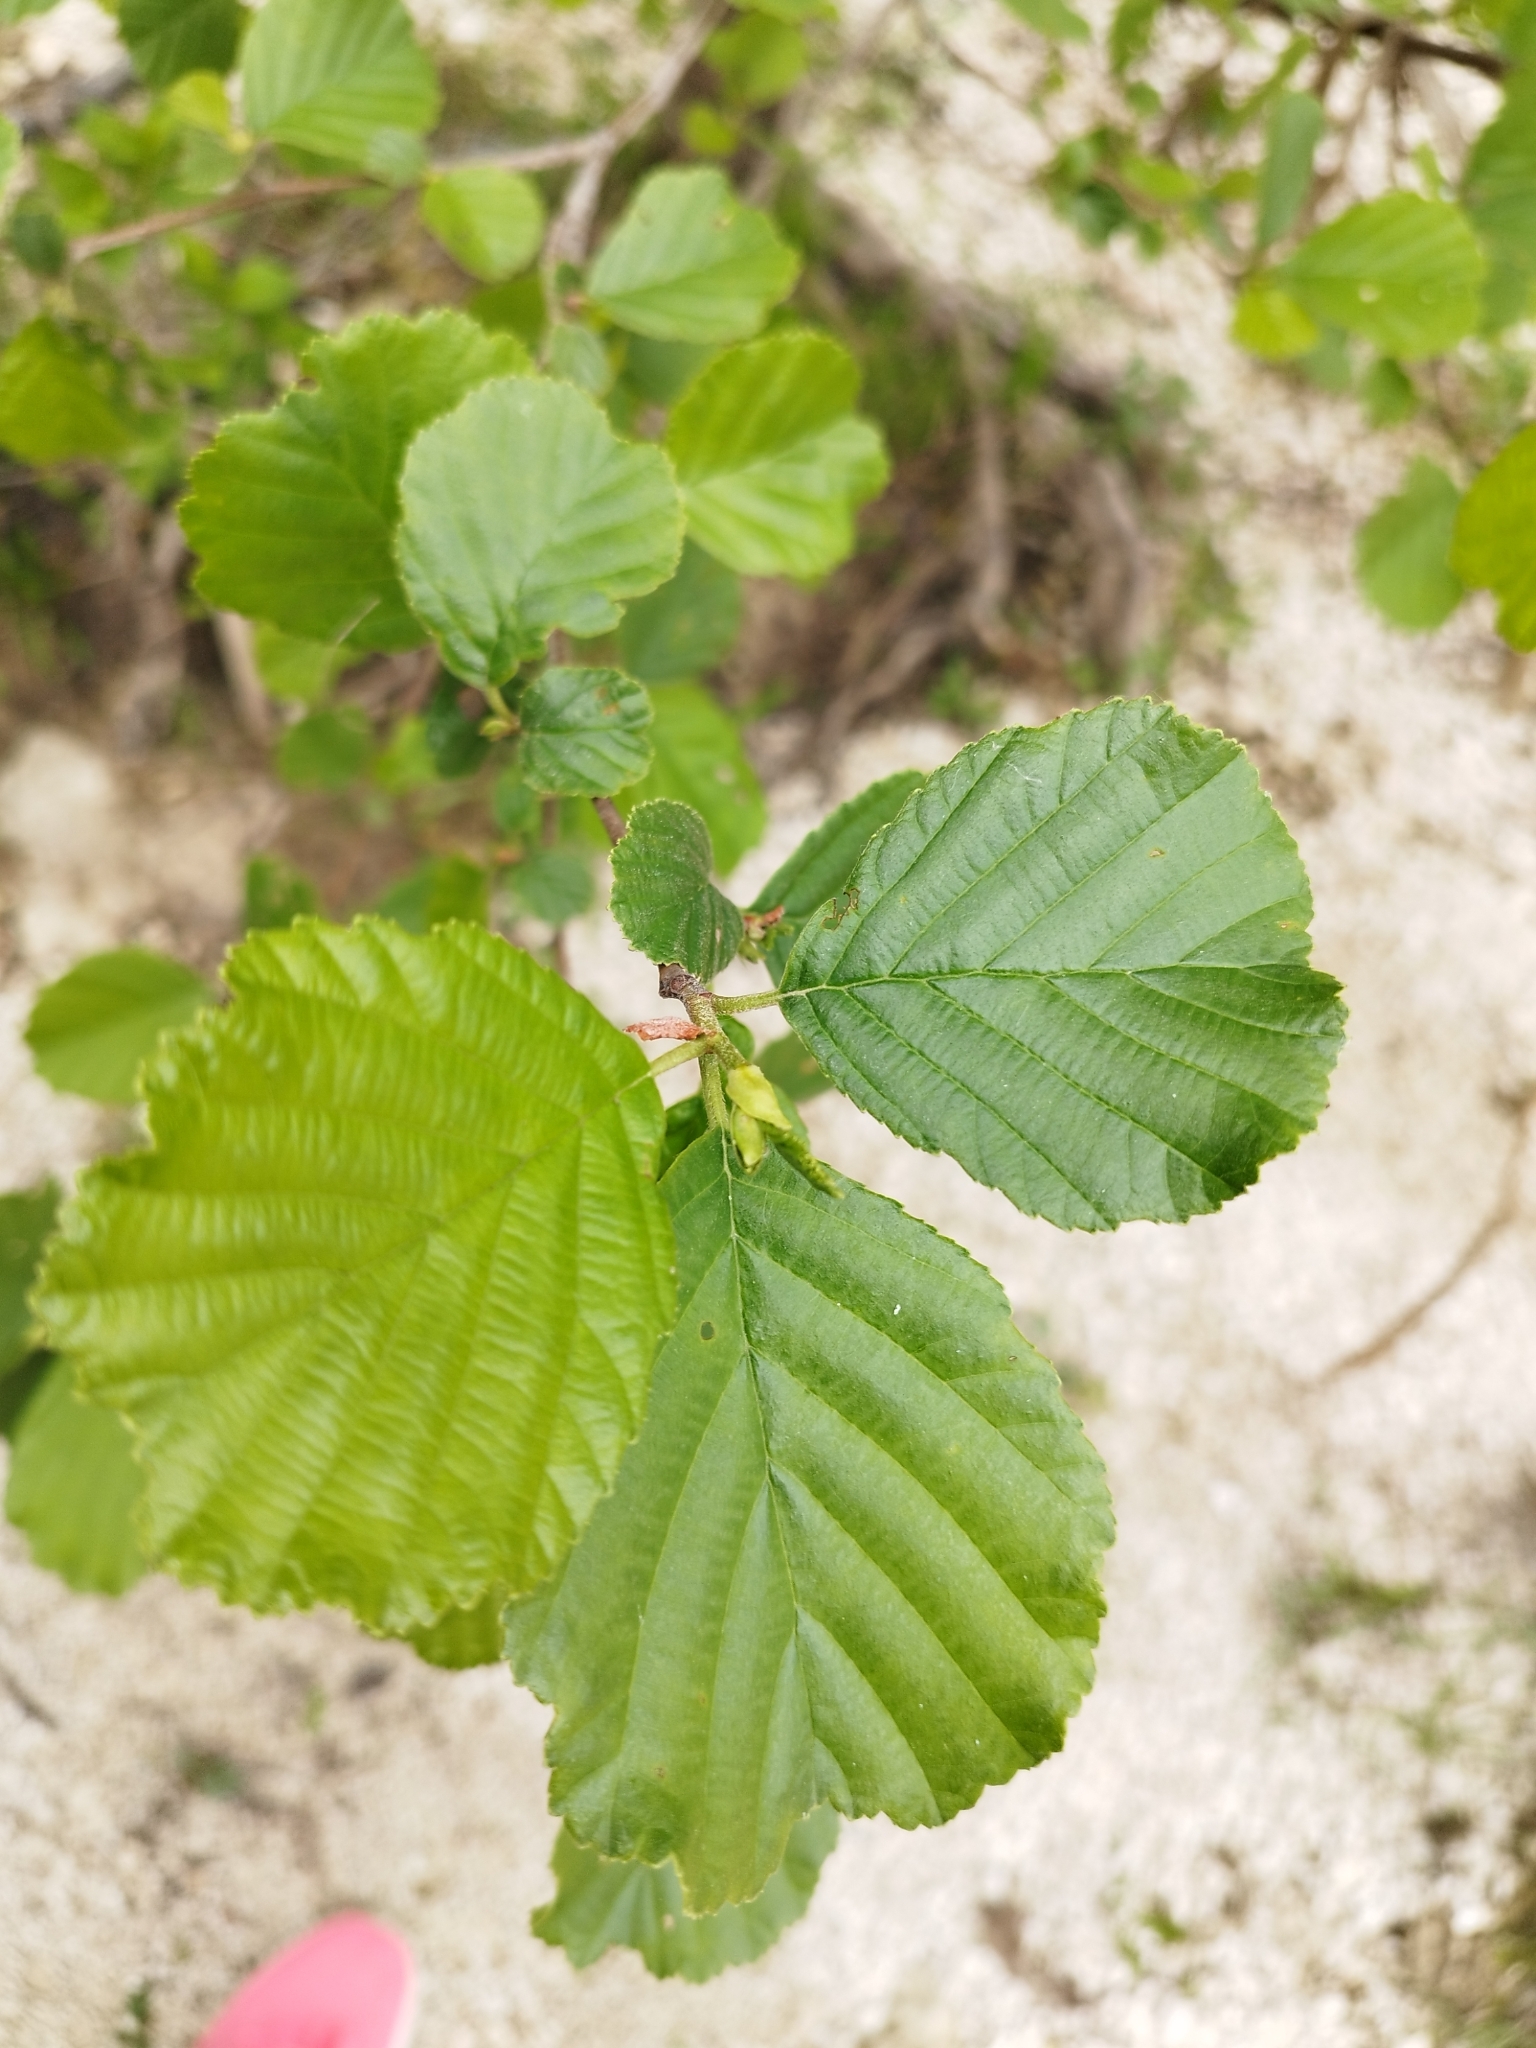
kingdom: Plantae
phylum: Tracheophyta
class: Magnoliopsida
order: Fagales
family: Betulaceae
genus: Alnus
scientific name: Alnus glutinosa
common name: Black alder
